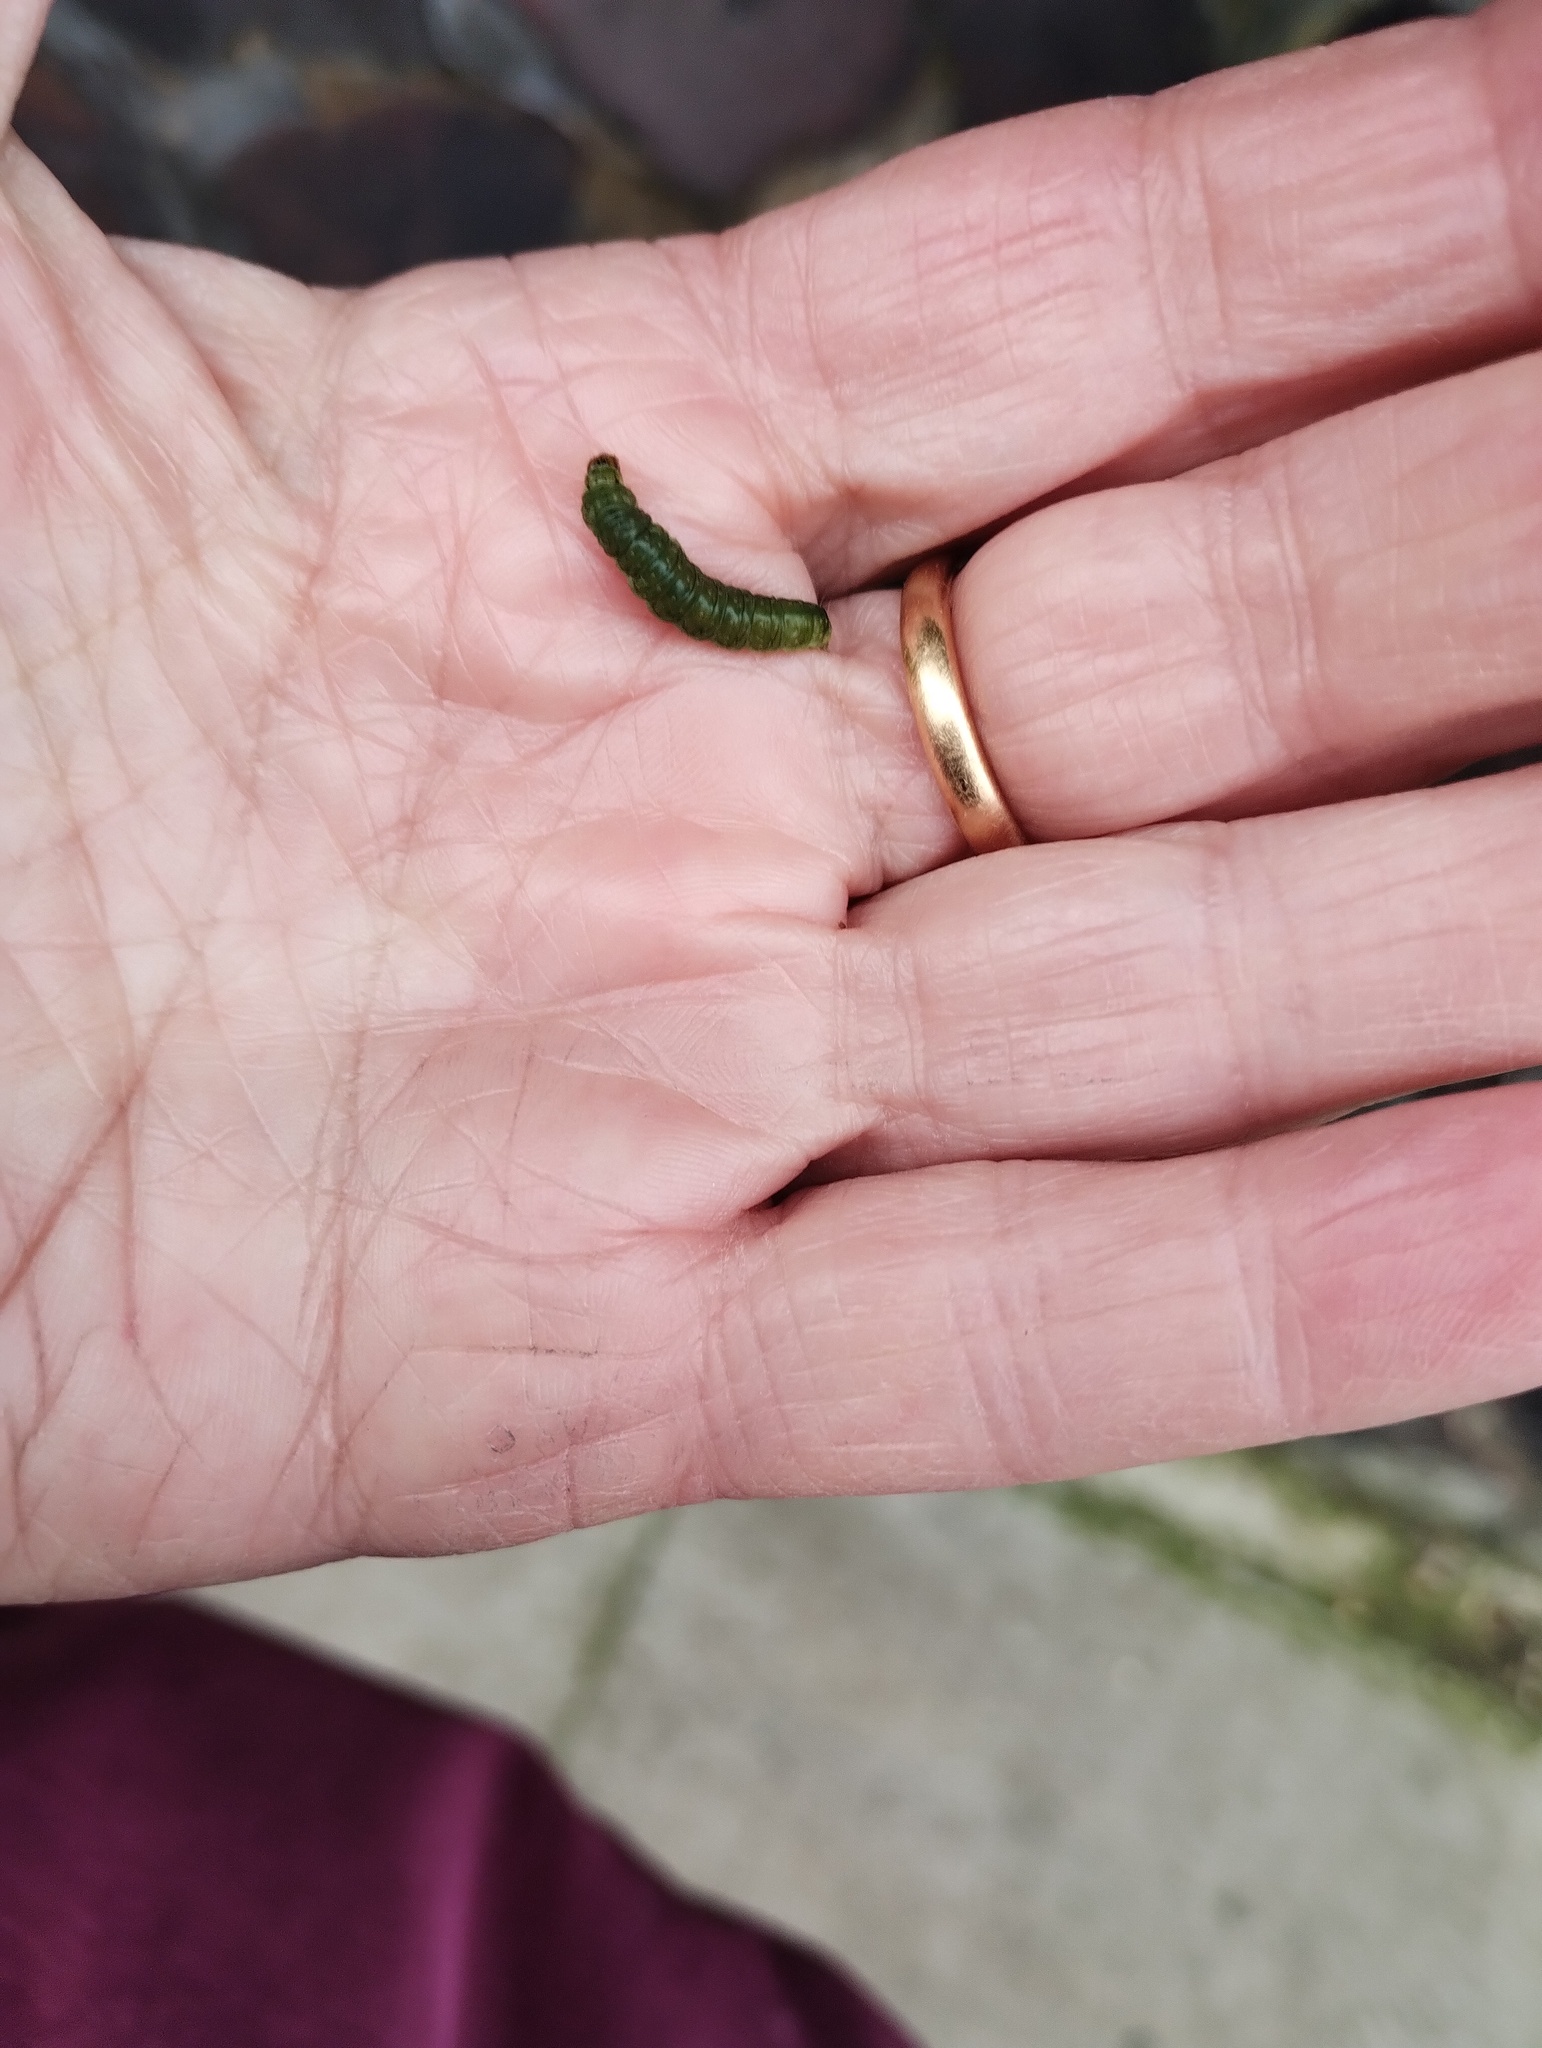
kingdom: Animalia
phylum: Arthropoda
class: Insecta
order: Lepidoptera
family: Tortricidae
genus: Epiphyas
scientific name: Epiphyas postvittana
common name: Light brown apple moth
